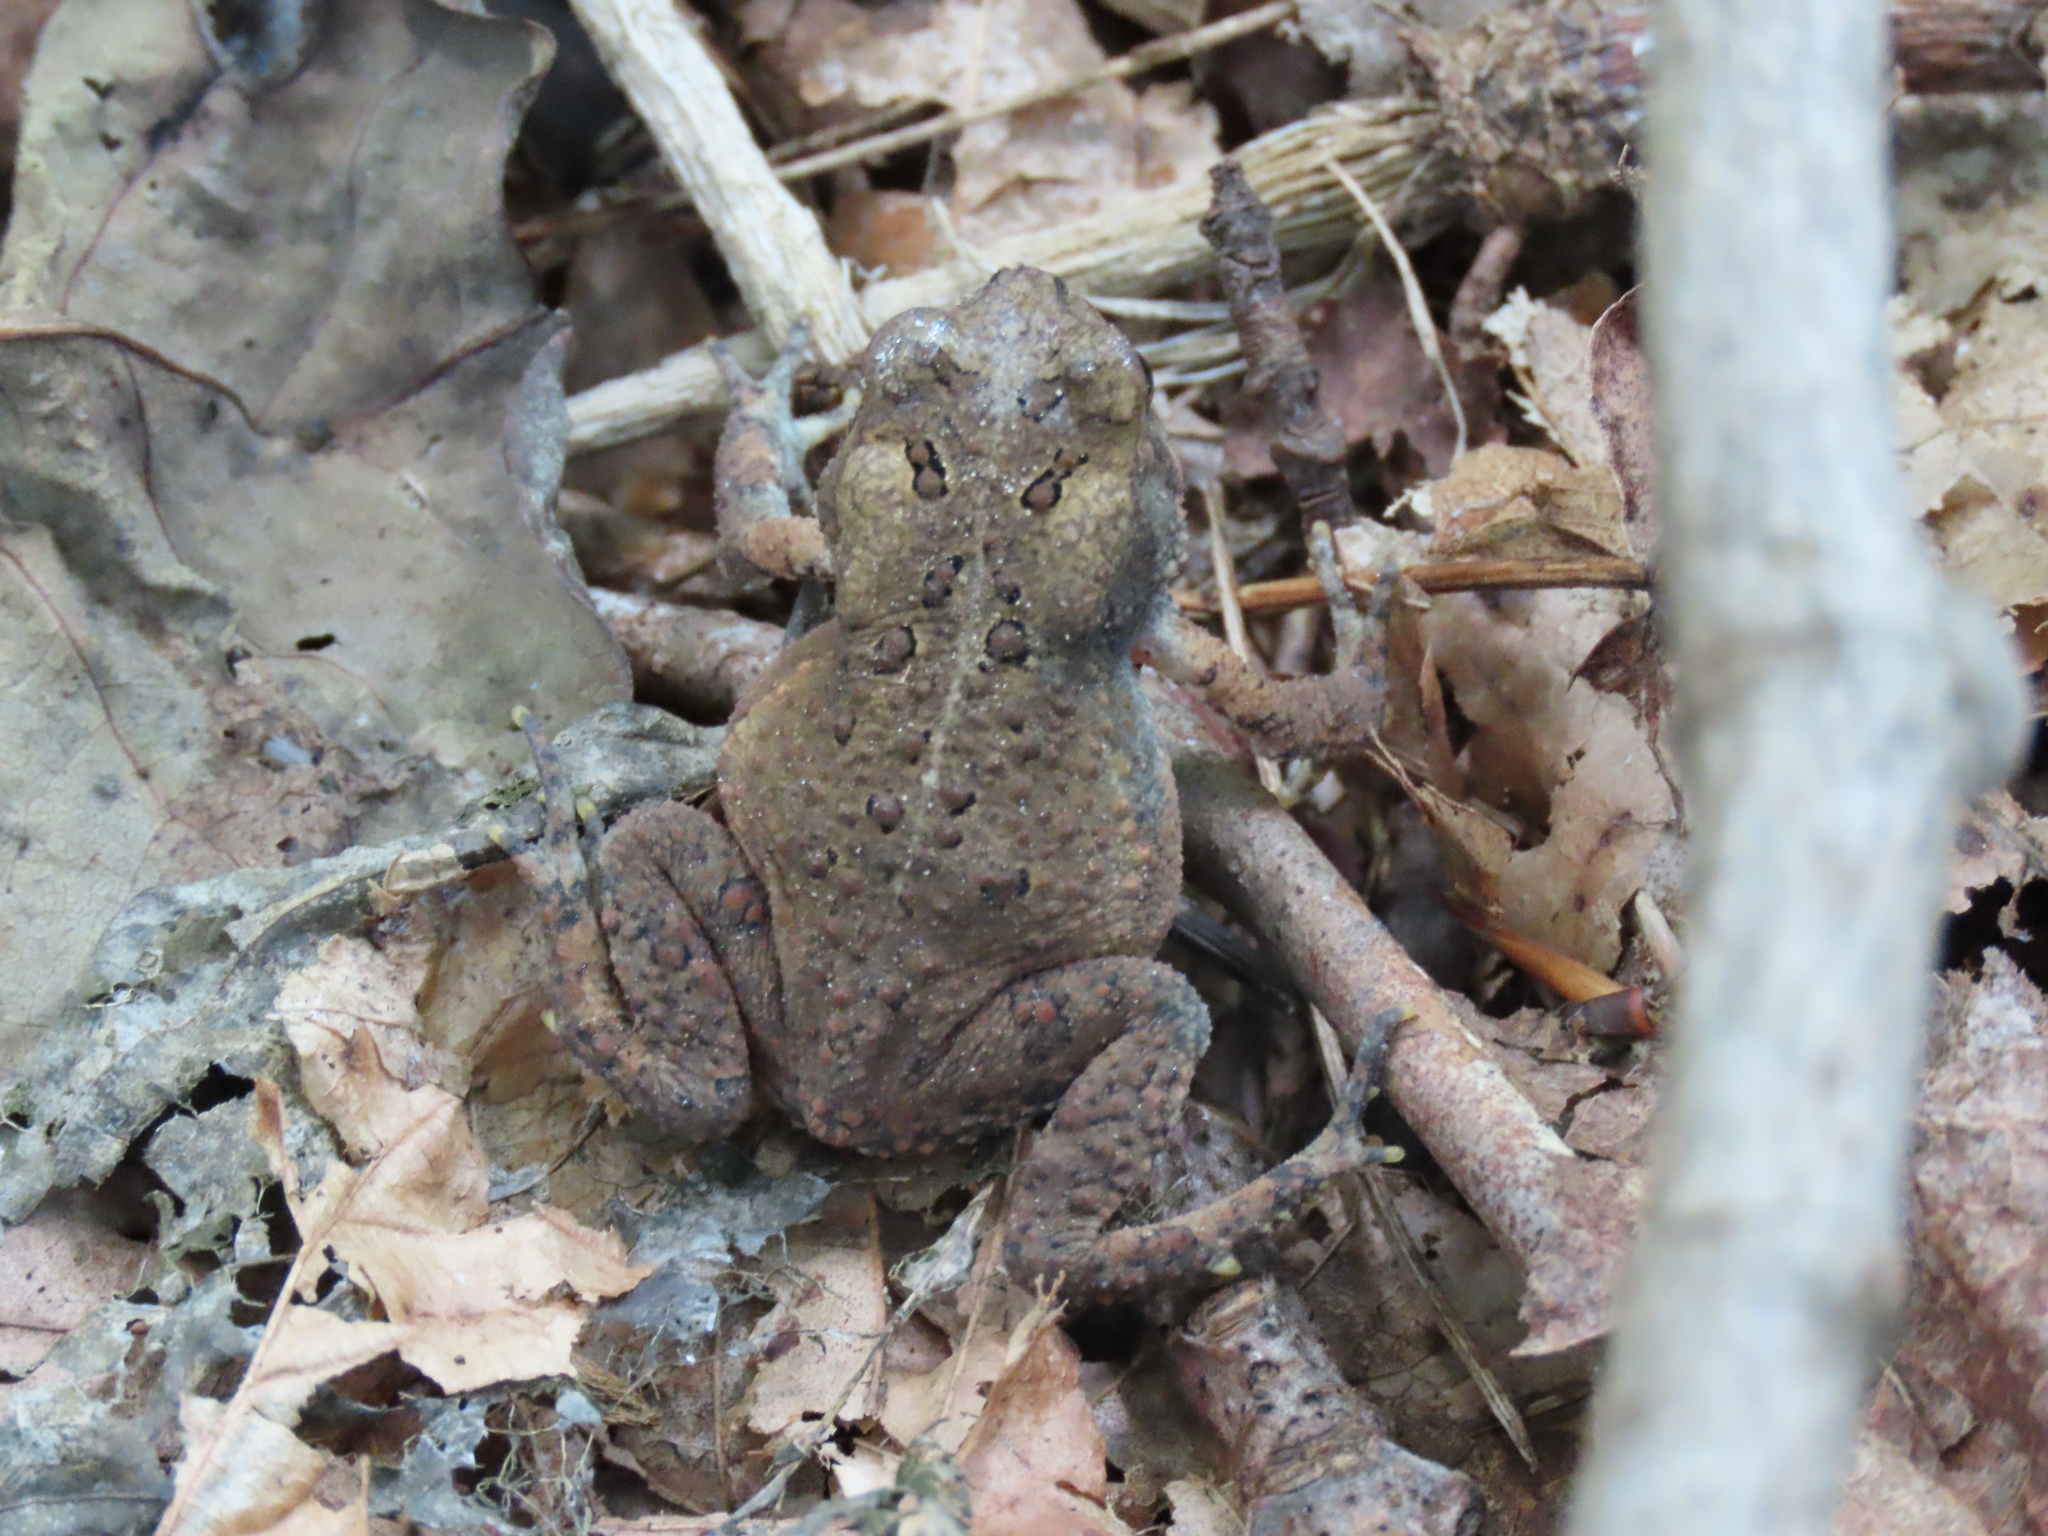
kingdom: Animalia
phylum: Chordata
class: Amphibia
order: Anura
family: Bufonidae
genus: Anaxyrus
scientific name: Anaxyrus americanus
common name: American toad
